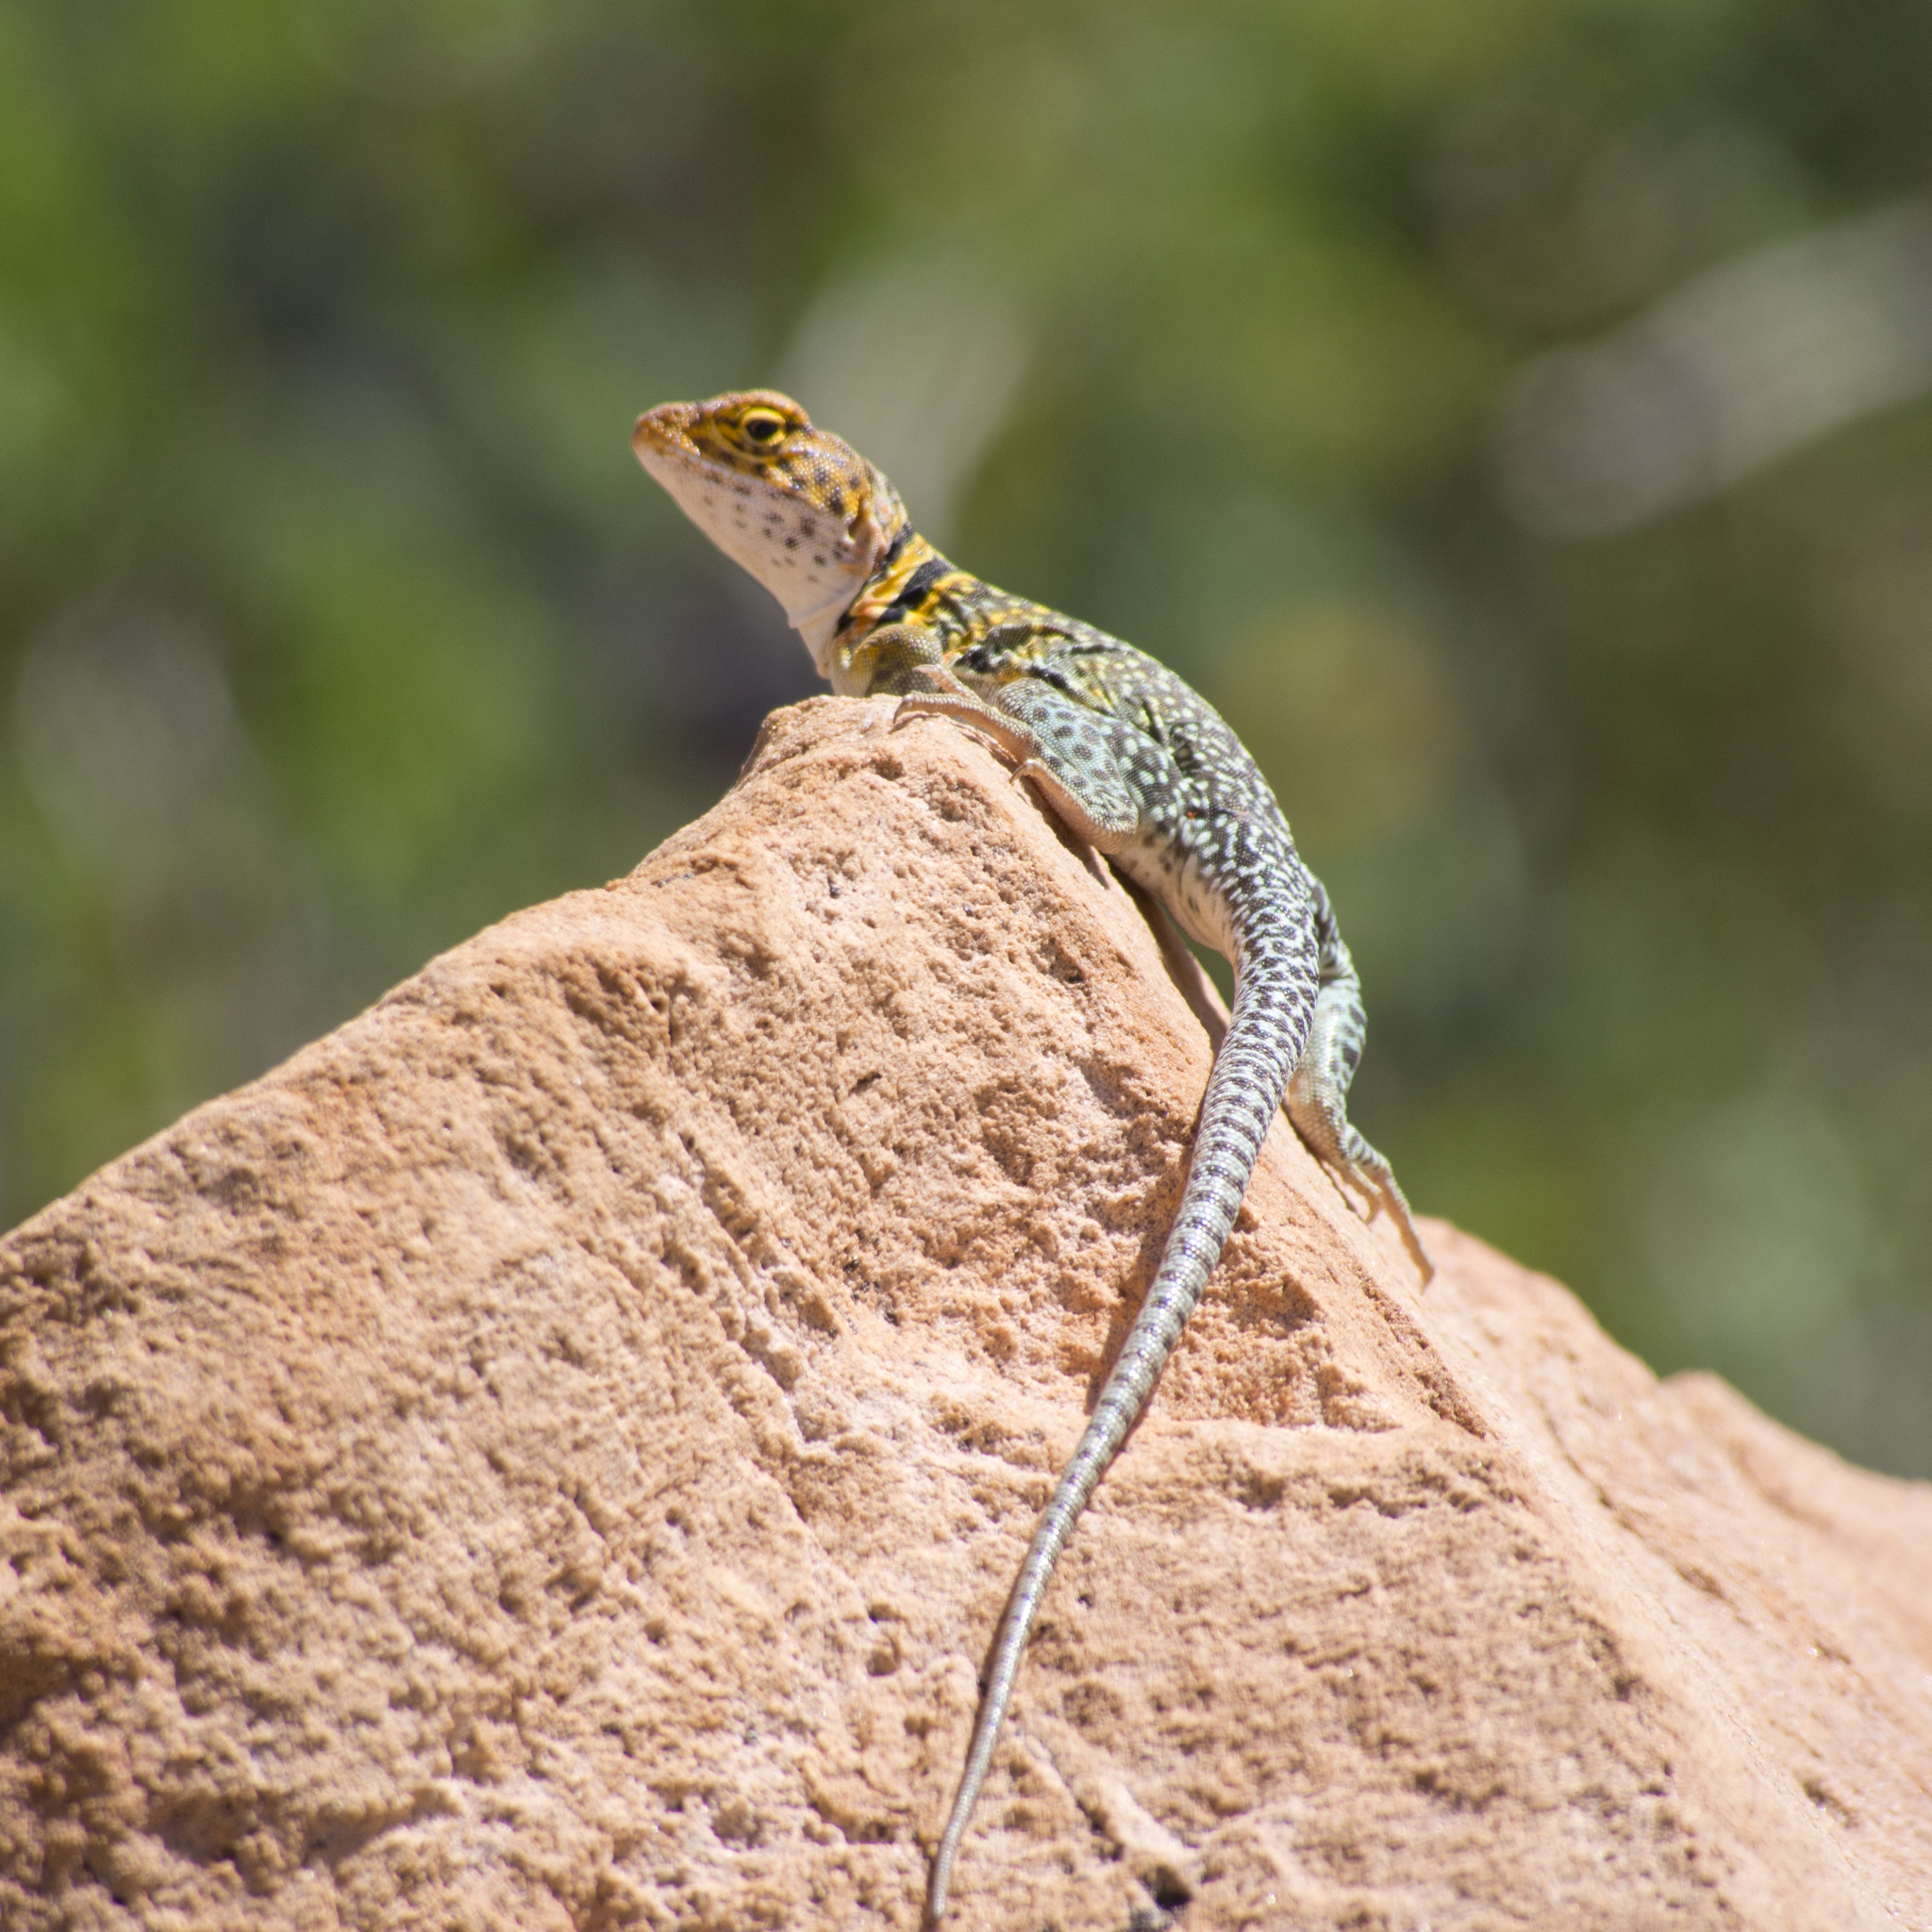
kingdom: Animalia
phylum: Chordata
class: Squamata
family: Crotaphytidae
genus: Crotaphytus
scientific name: Crotaphytus collaris
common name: Collared lizard
